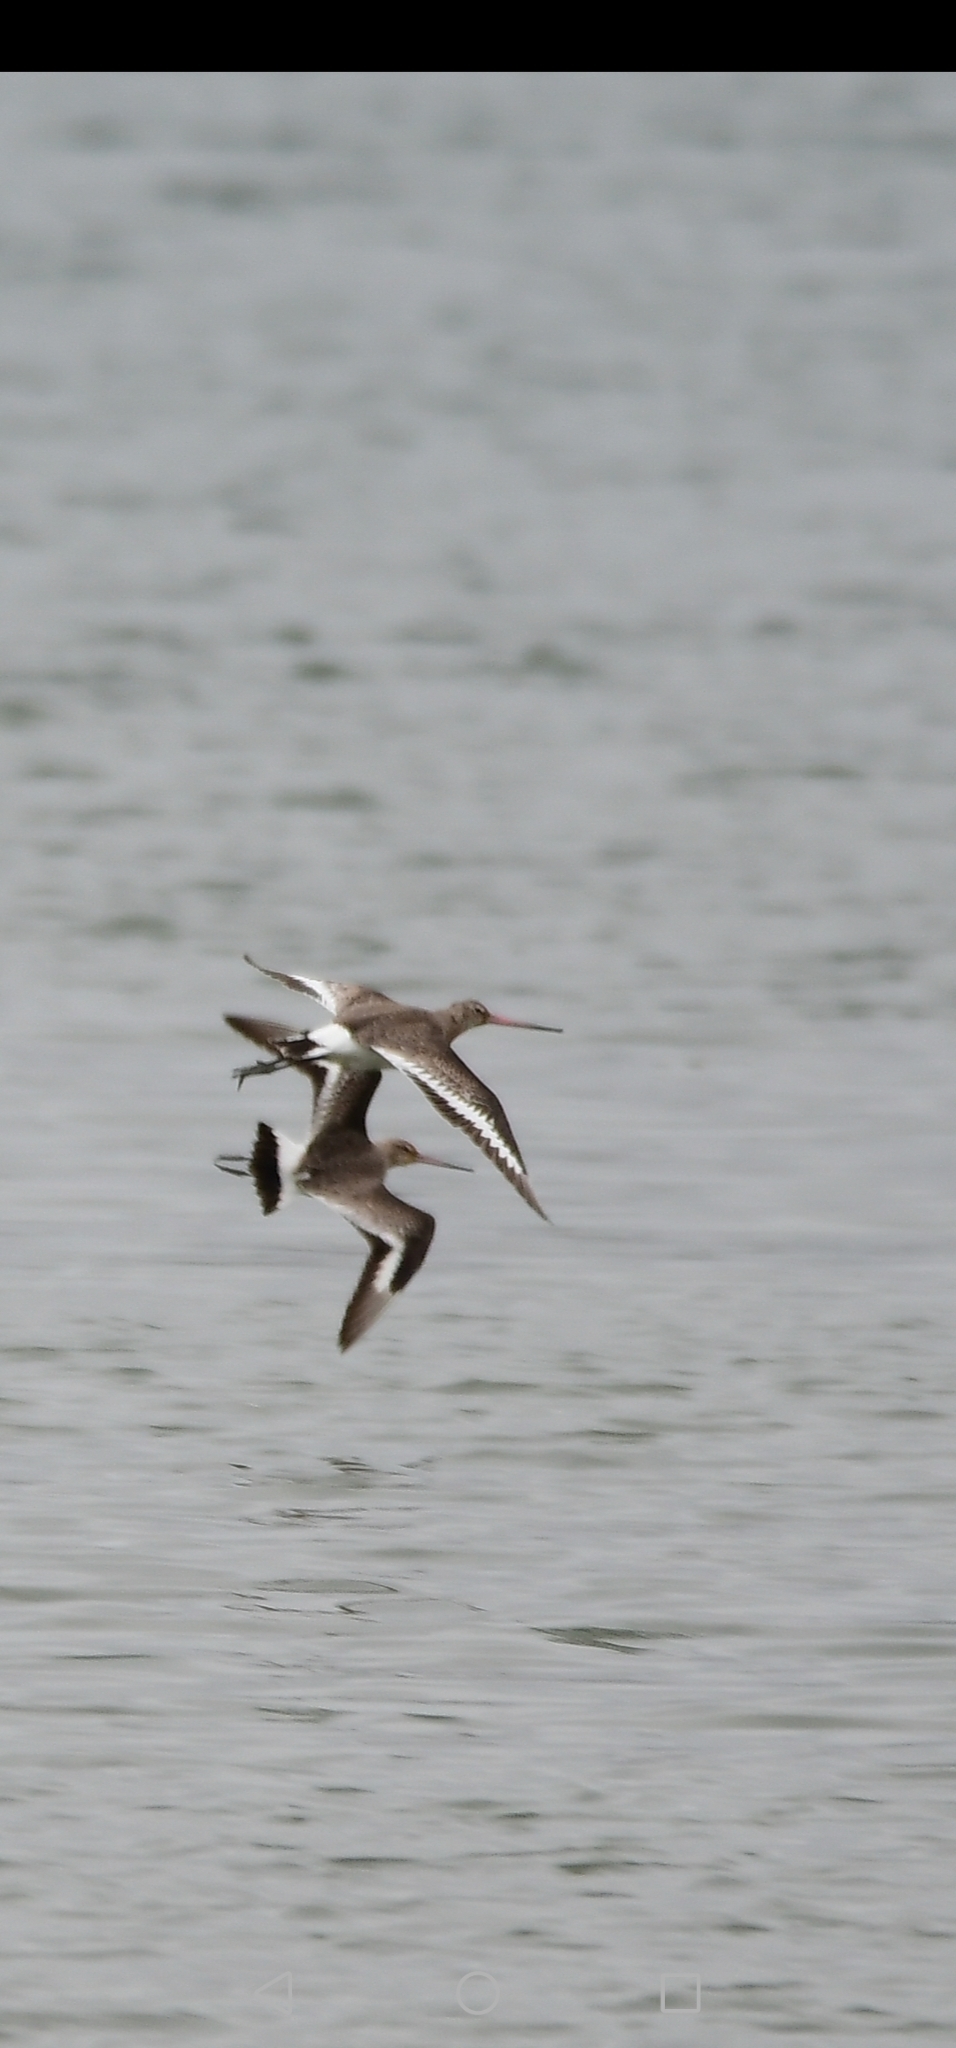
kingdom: Animalia
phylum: Chordata
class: Aves
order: Charadriiformes
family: Scolopacidae
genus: Limosa
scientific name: Limosa limosa
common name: Black-tailed godwit
